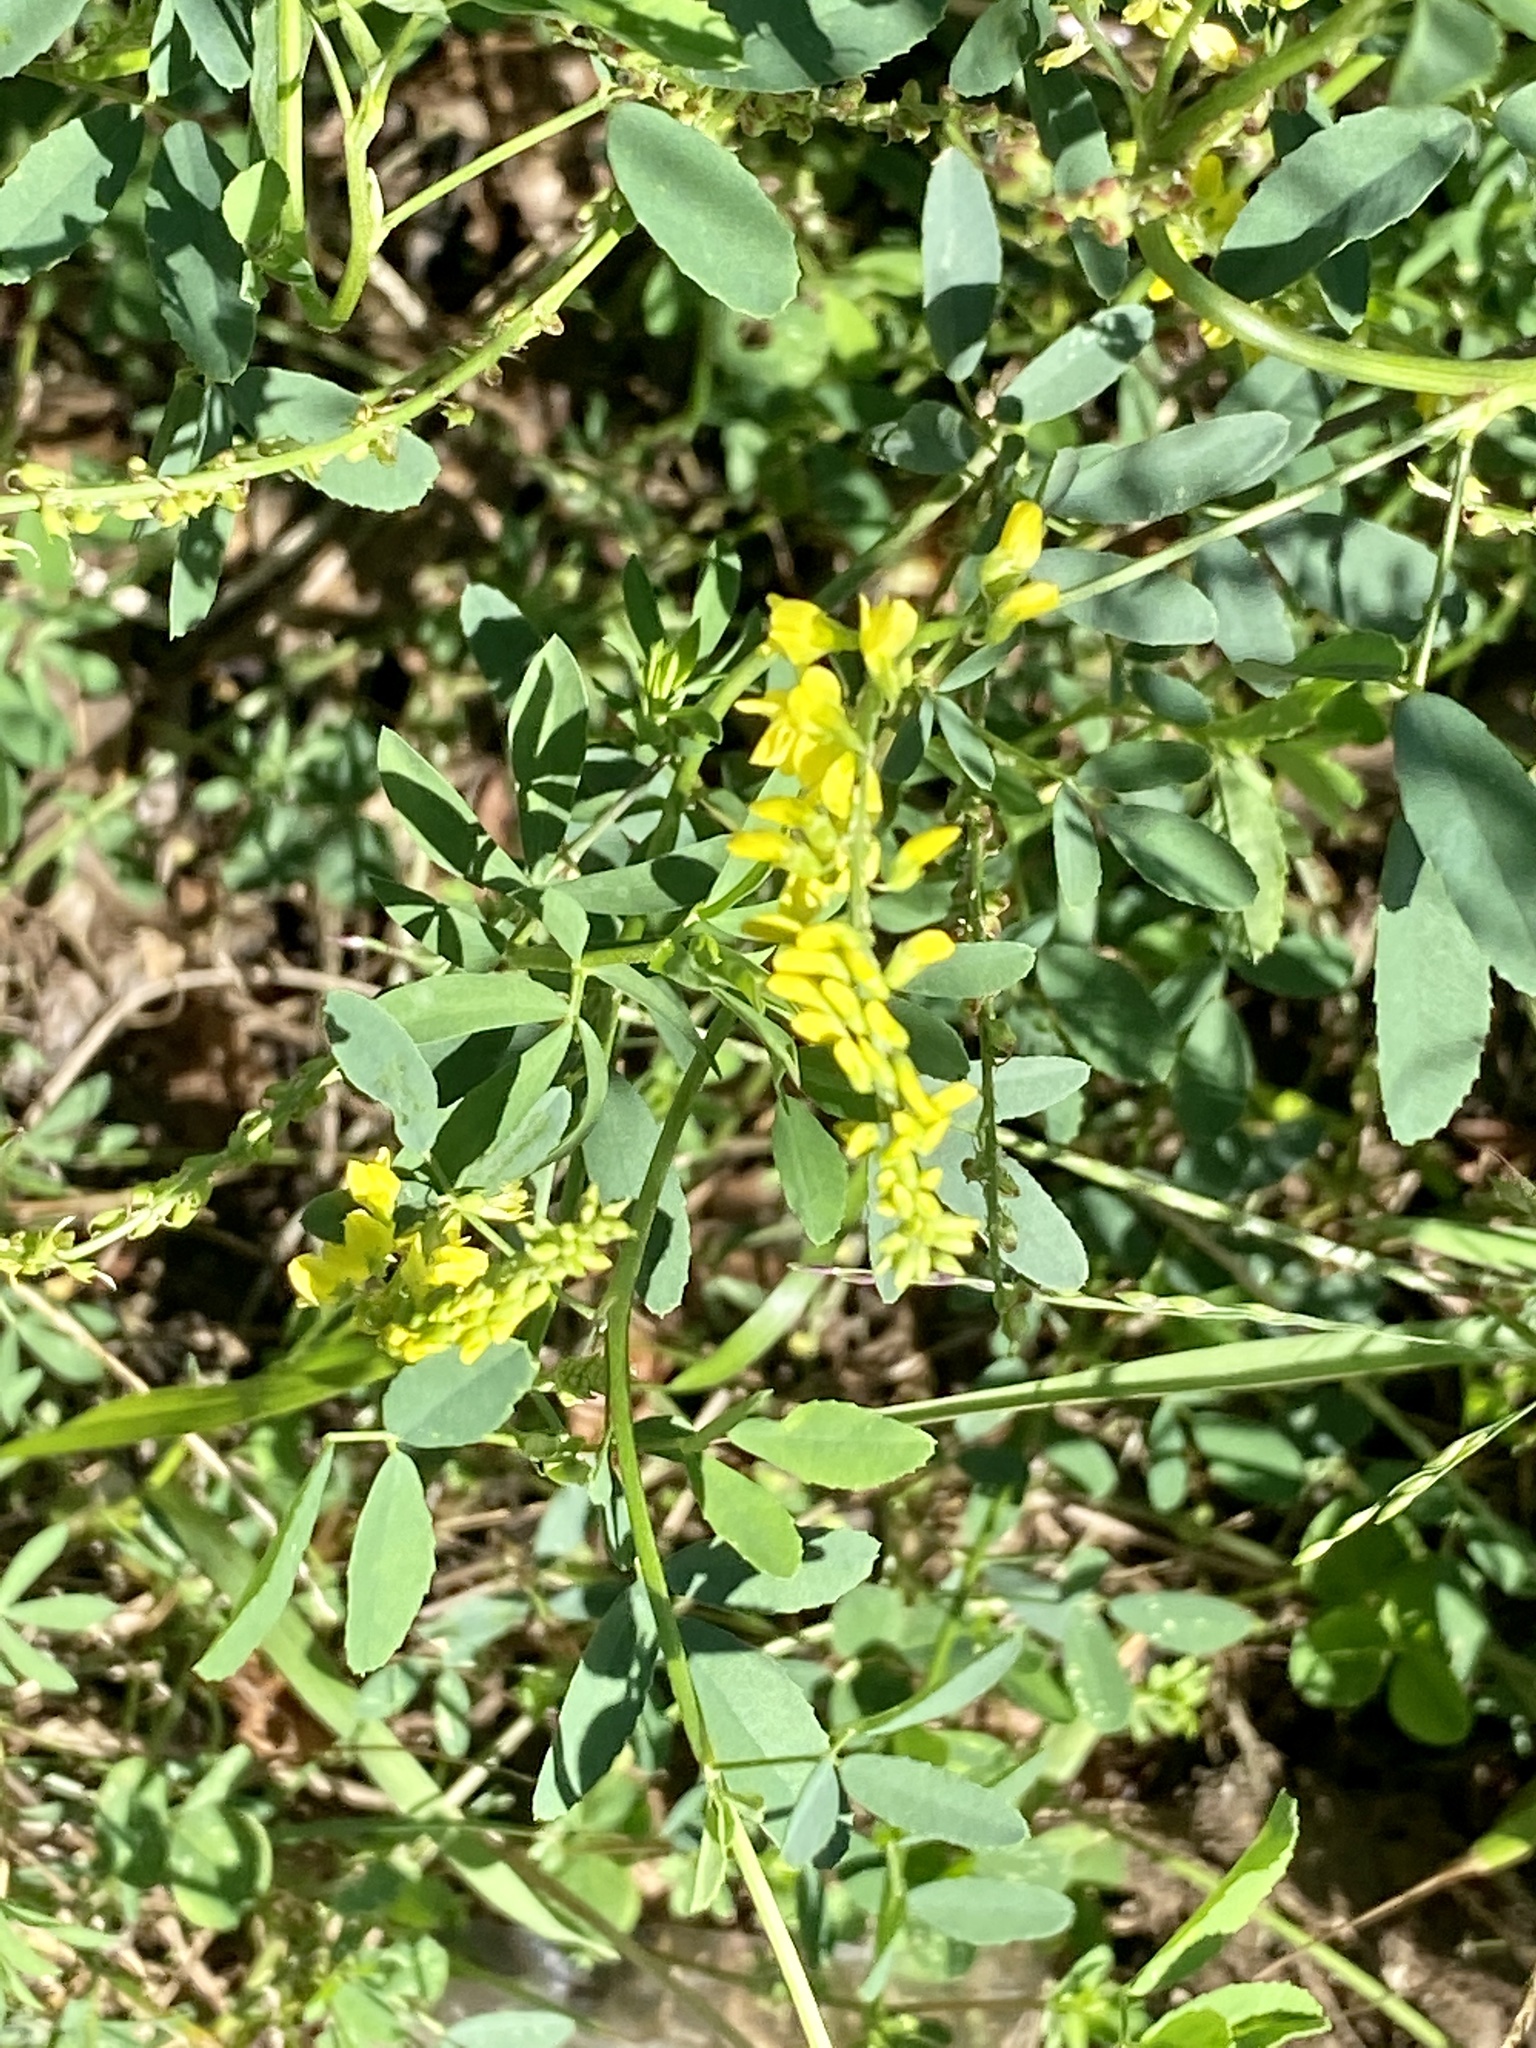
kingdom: Plantae
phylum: Tracheophyta
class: Magnoliopsida
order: Fabales
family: Fabaceae
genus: Melilotus
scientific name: Melilotus officinalis
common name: Sweetclover
